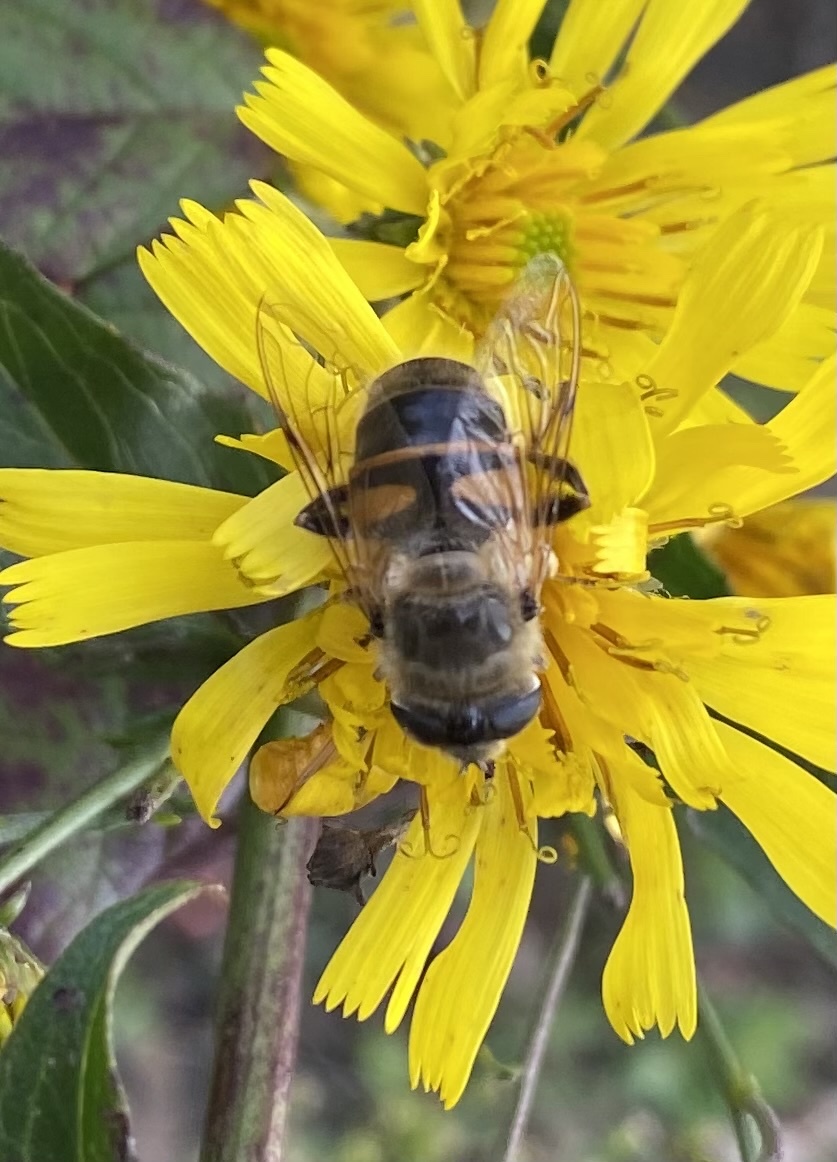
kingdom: Animalia
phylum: Arthropoda
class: Insecta
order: Diptera
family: Syrphidae
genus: Eristalis
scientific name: Eristalis tenax
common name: Drone fly
